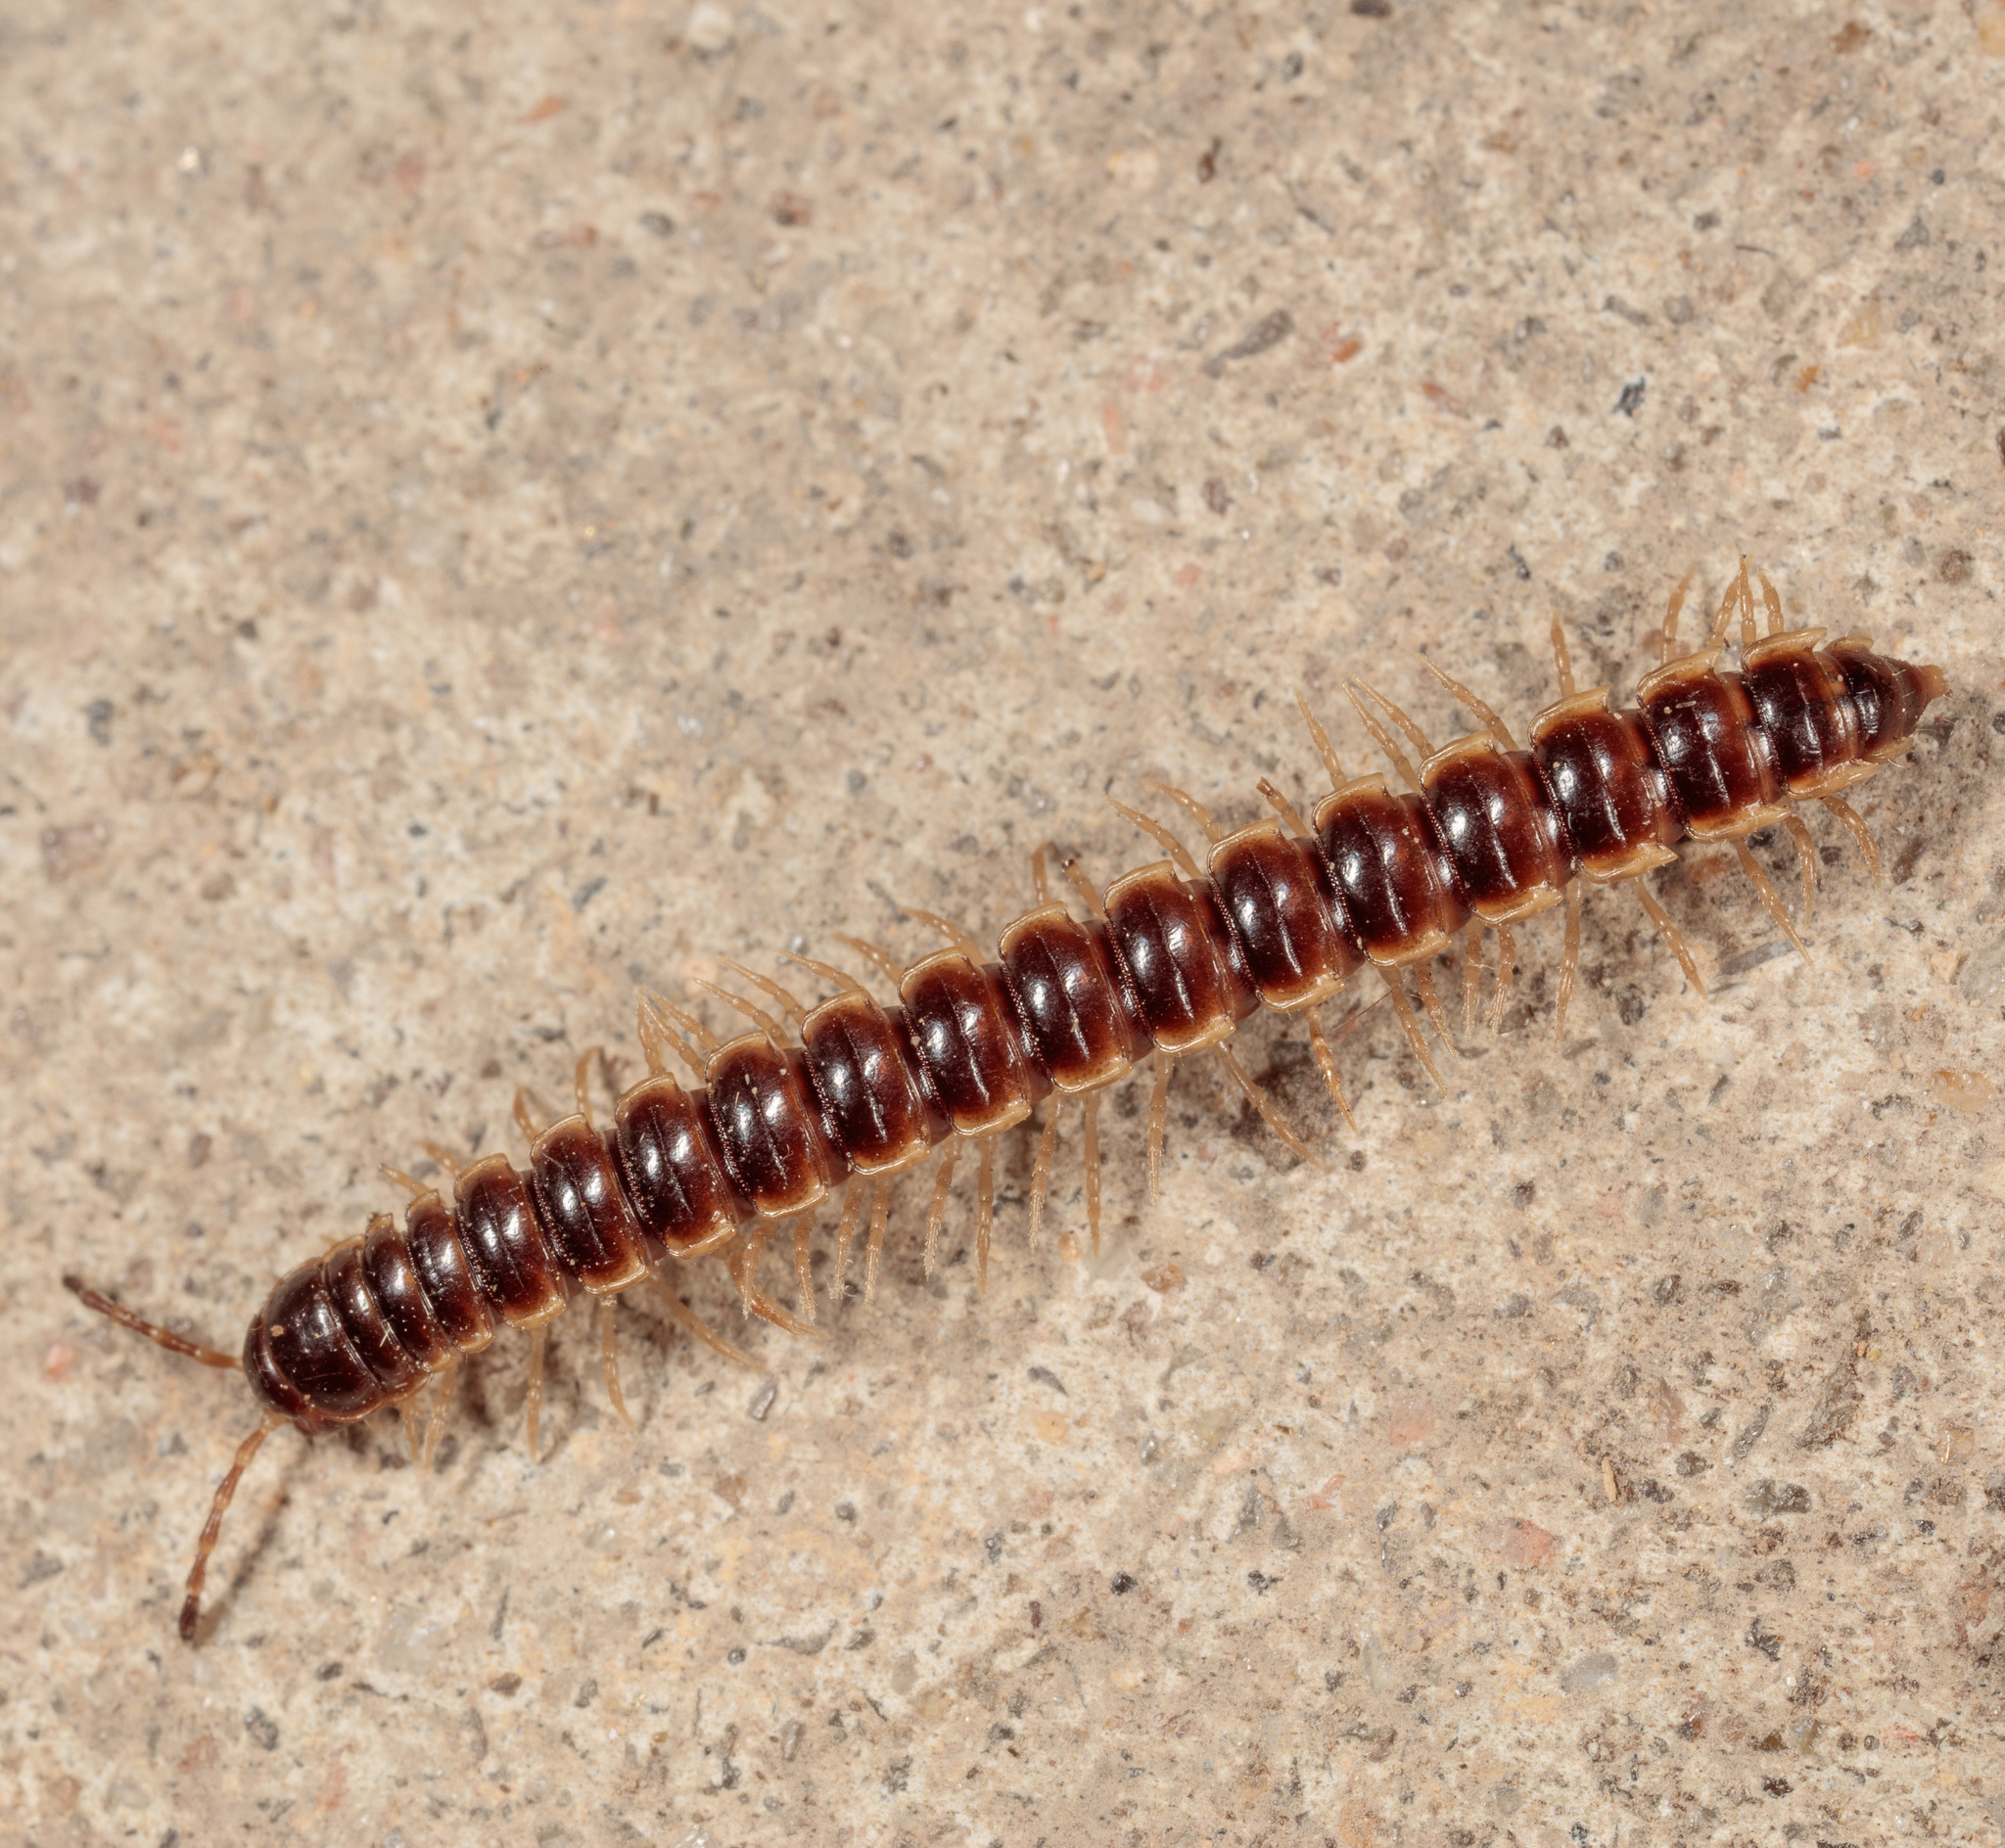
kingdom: Animalia
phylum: Arthropoda
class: Diplopoda
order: Polydesmida
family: Paradoxosomatidae
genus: Oxidus
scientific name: Oxidus gracilis
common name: Greenhouse millipede
